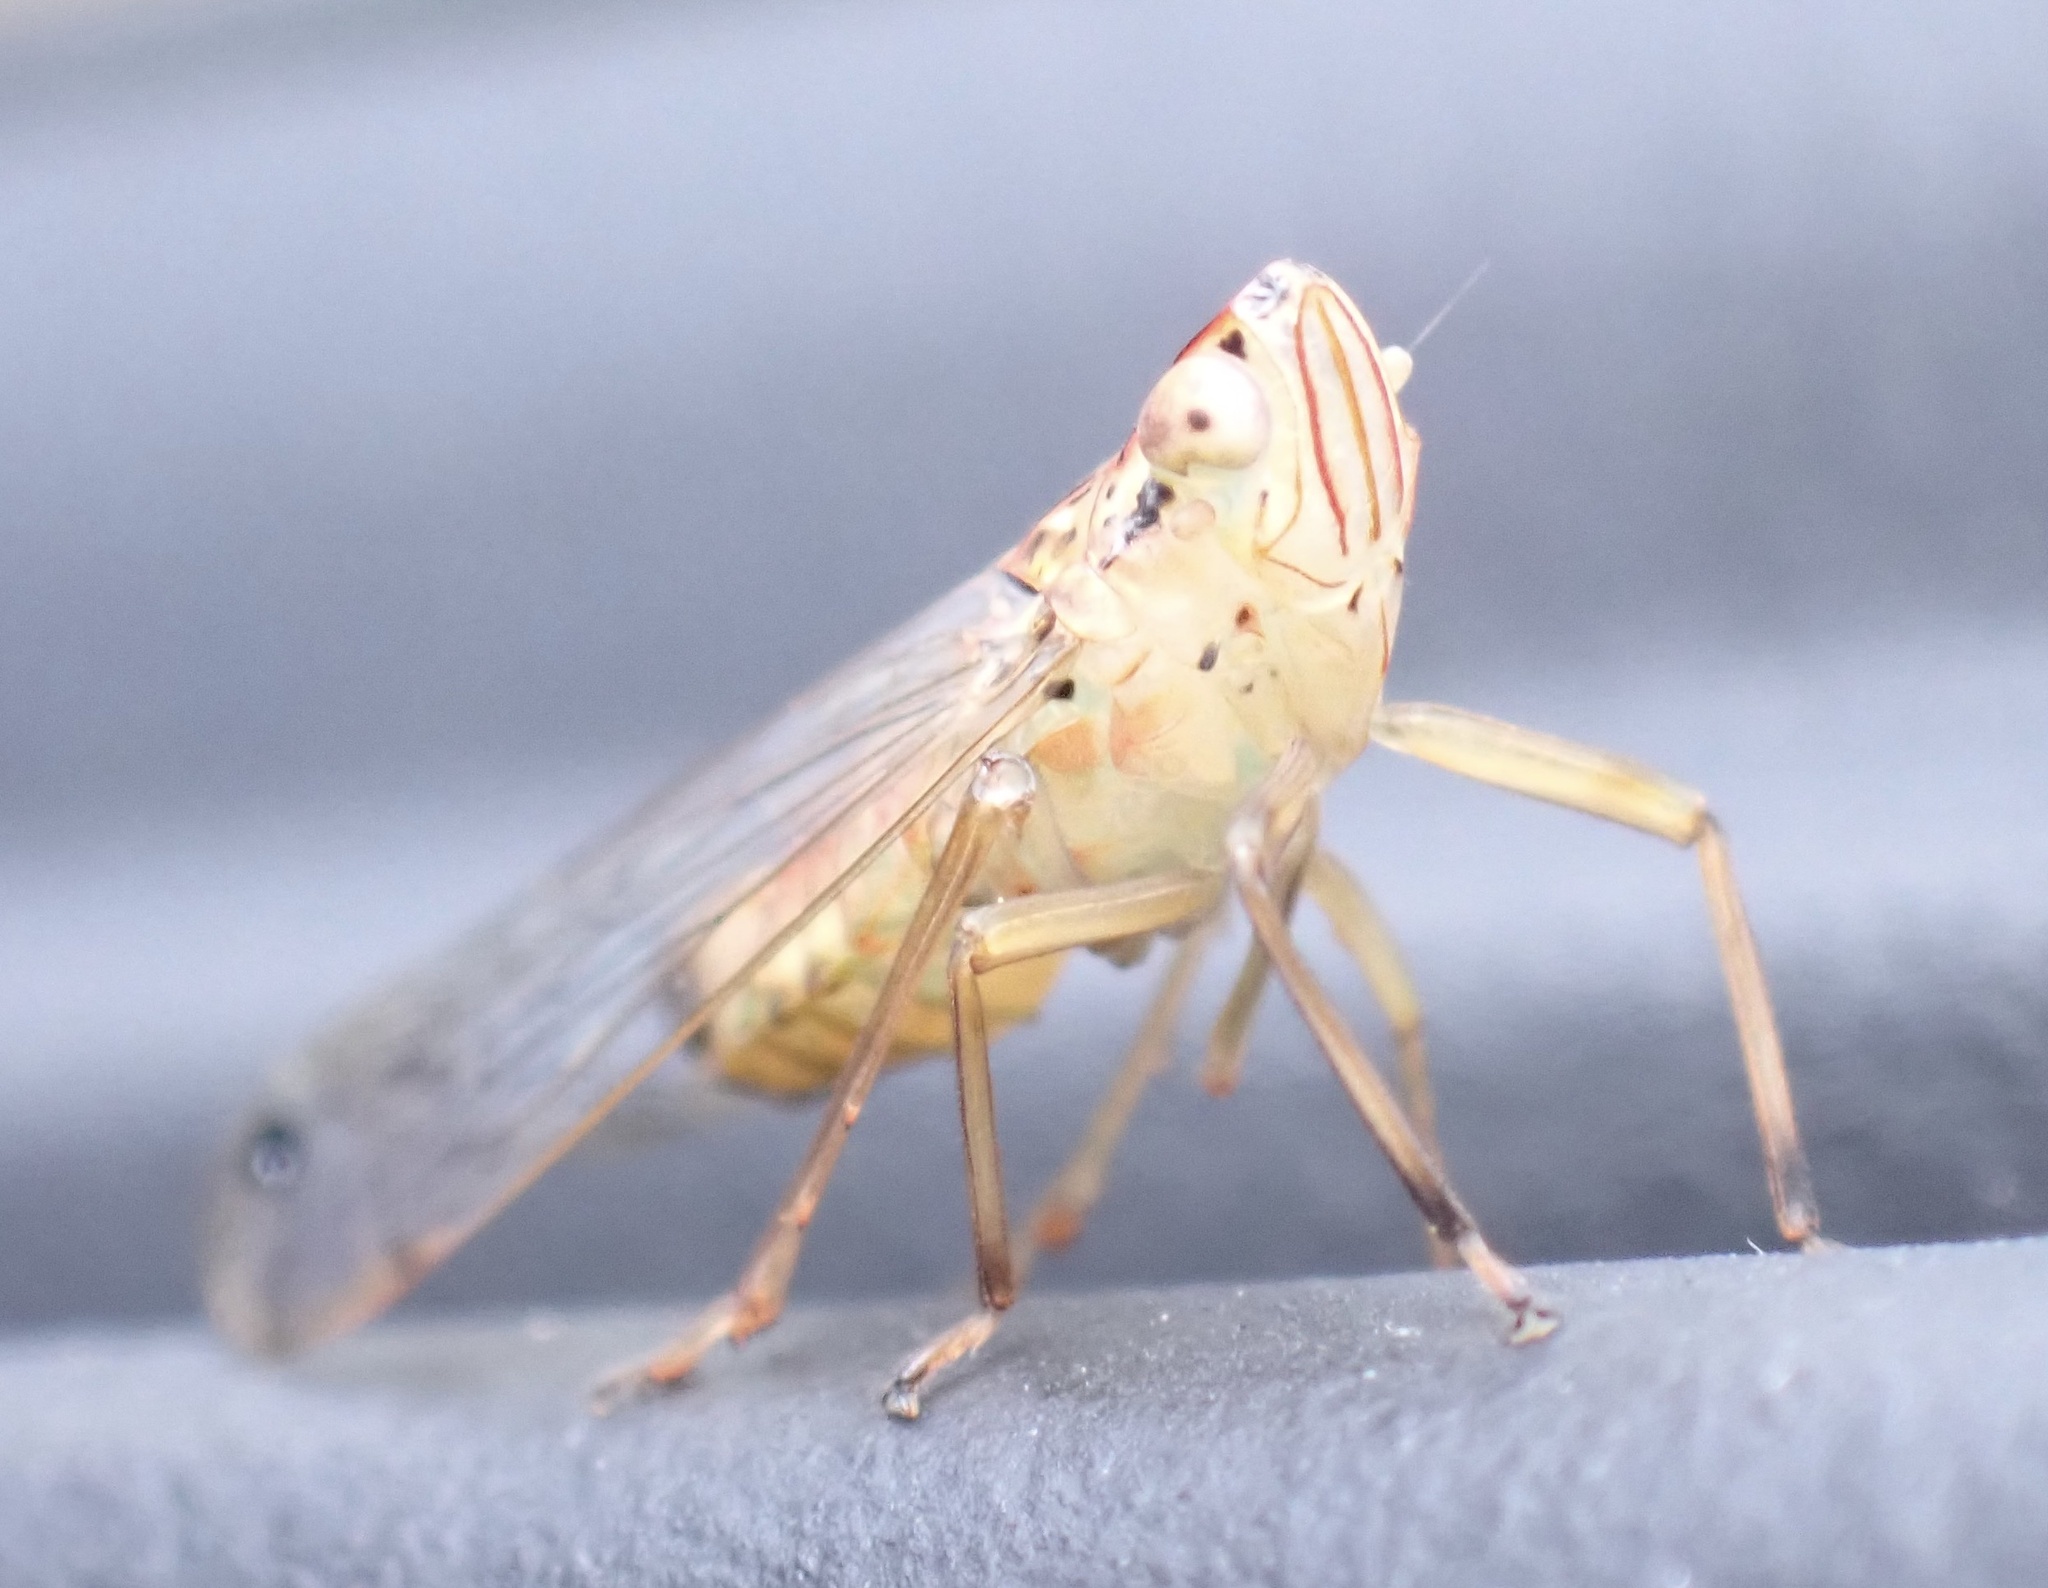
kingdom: Animalia
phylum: Arthropoda
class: Insecta
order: Hemiptera
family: Lophopidae
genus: Magia
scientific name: Magia subocellata
